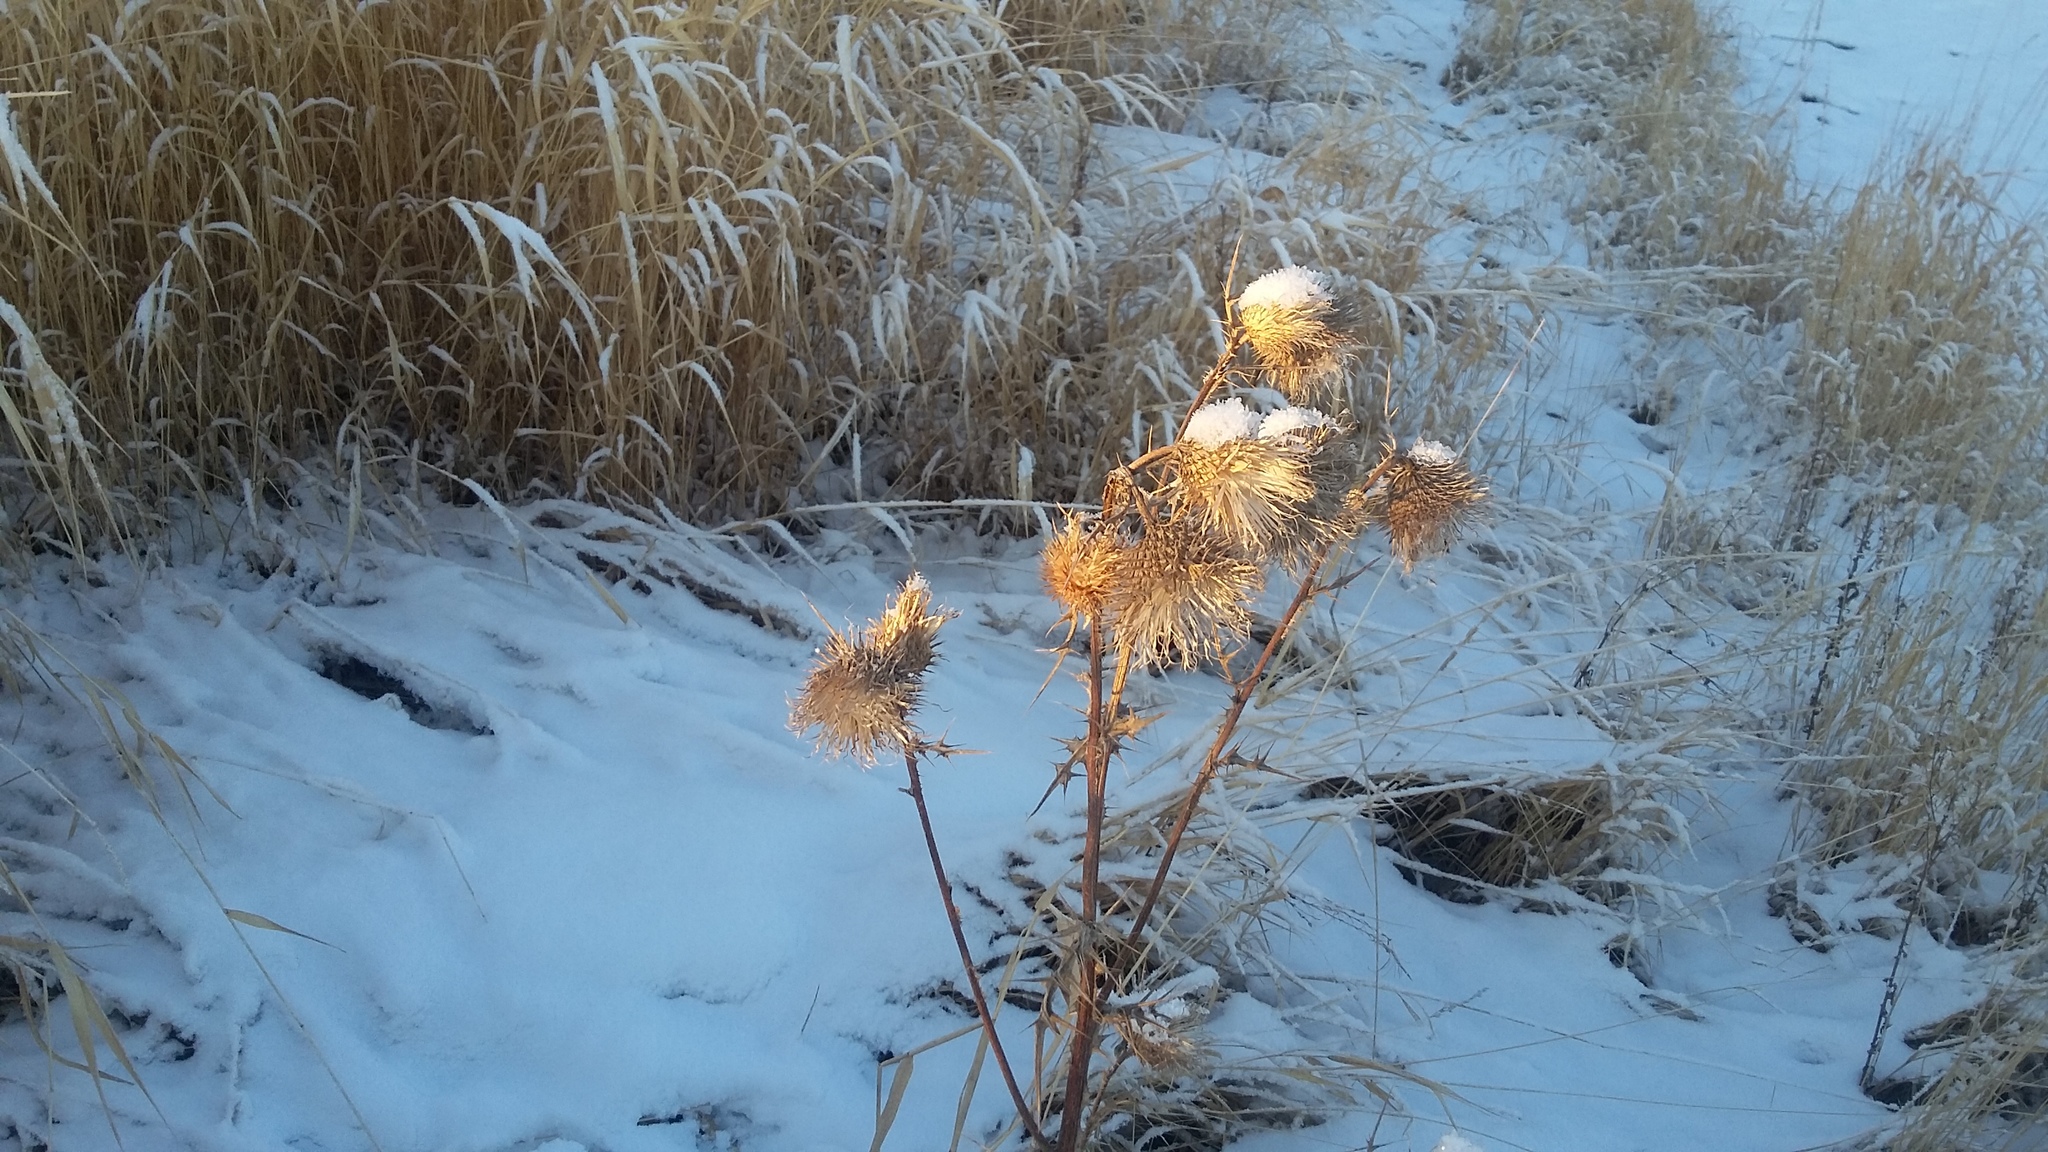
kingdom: Plantae
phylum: Tracheophyta
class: Magnoliopsida
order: Asterales
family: Asteraceae
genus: Cirsium
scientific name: Cirsium vulgare
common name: Bull thistle
